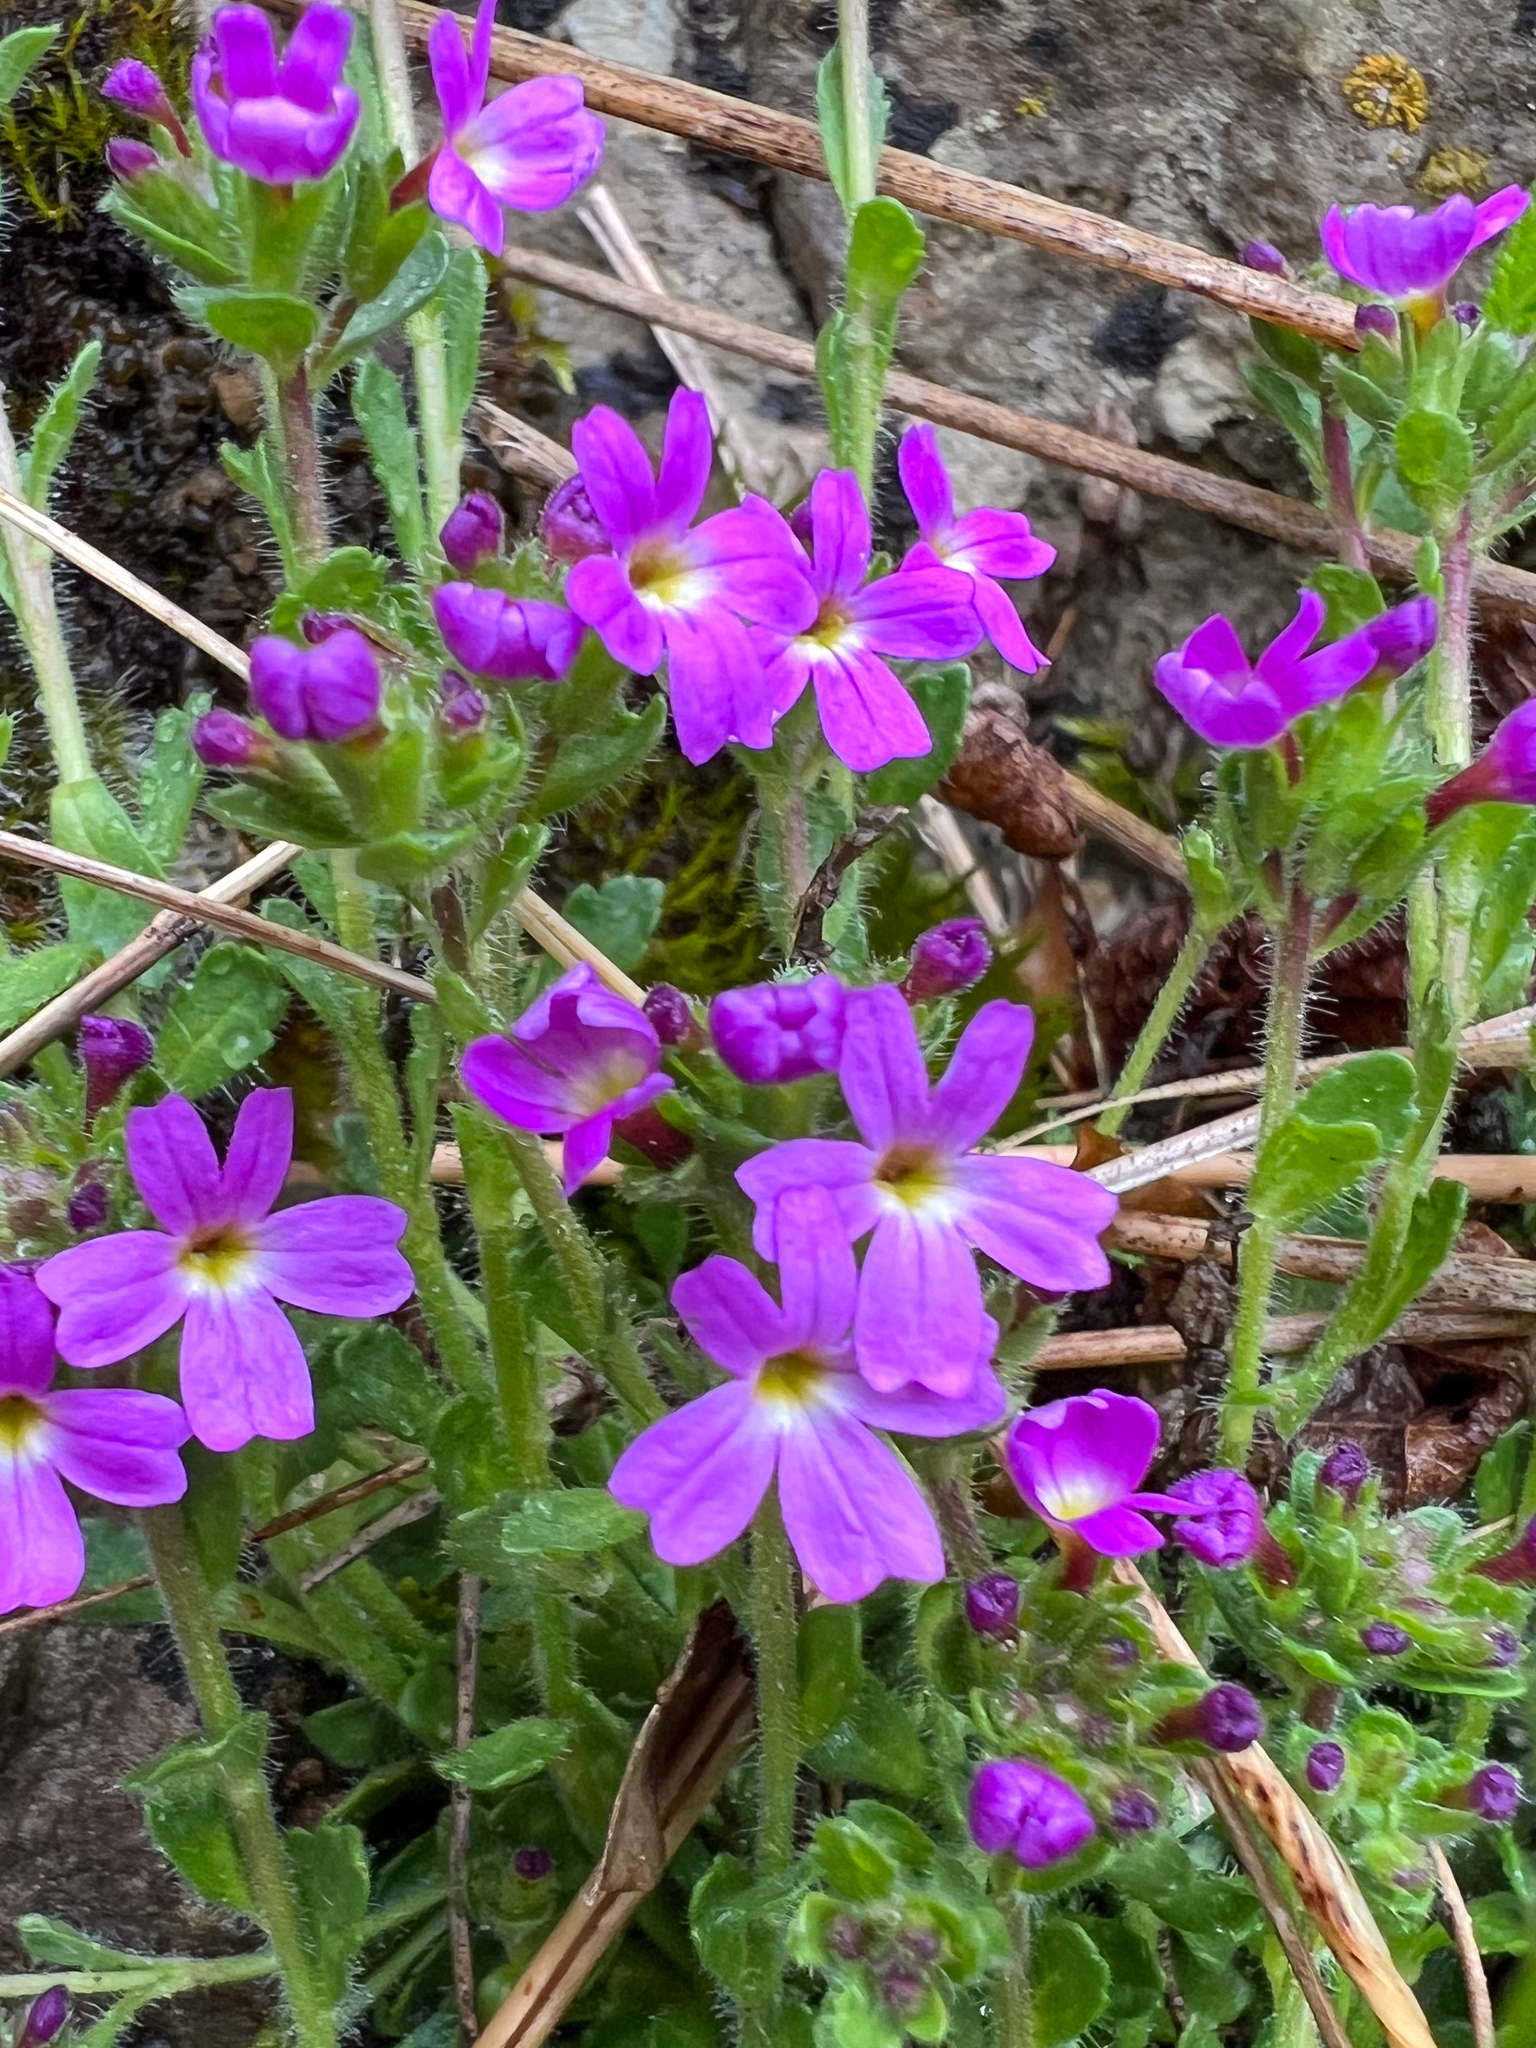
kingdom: Plantae
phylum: Tracheophyta
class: Magnoliopsida
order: Lamiales
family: Plantaginaceae
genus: Erinus
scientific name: Erinus alpinus
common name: Fairy foxglove
